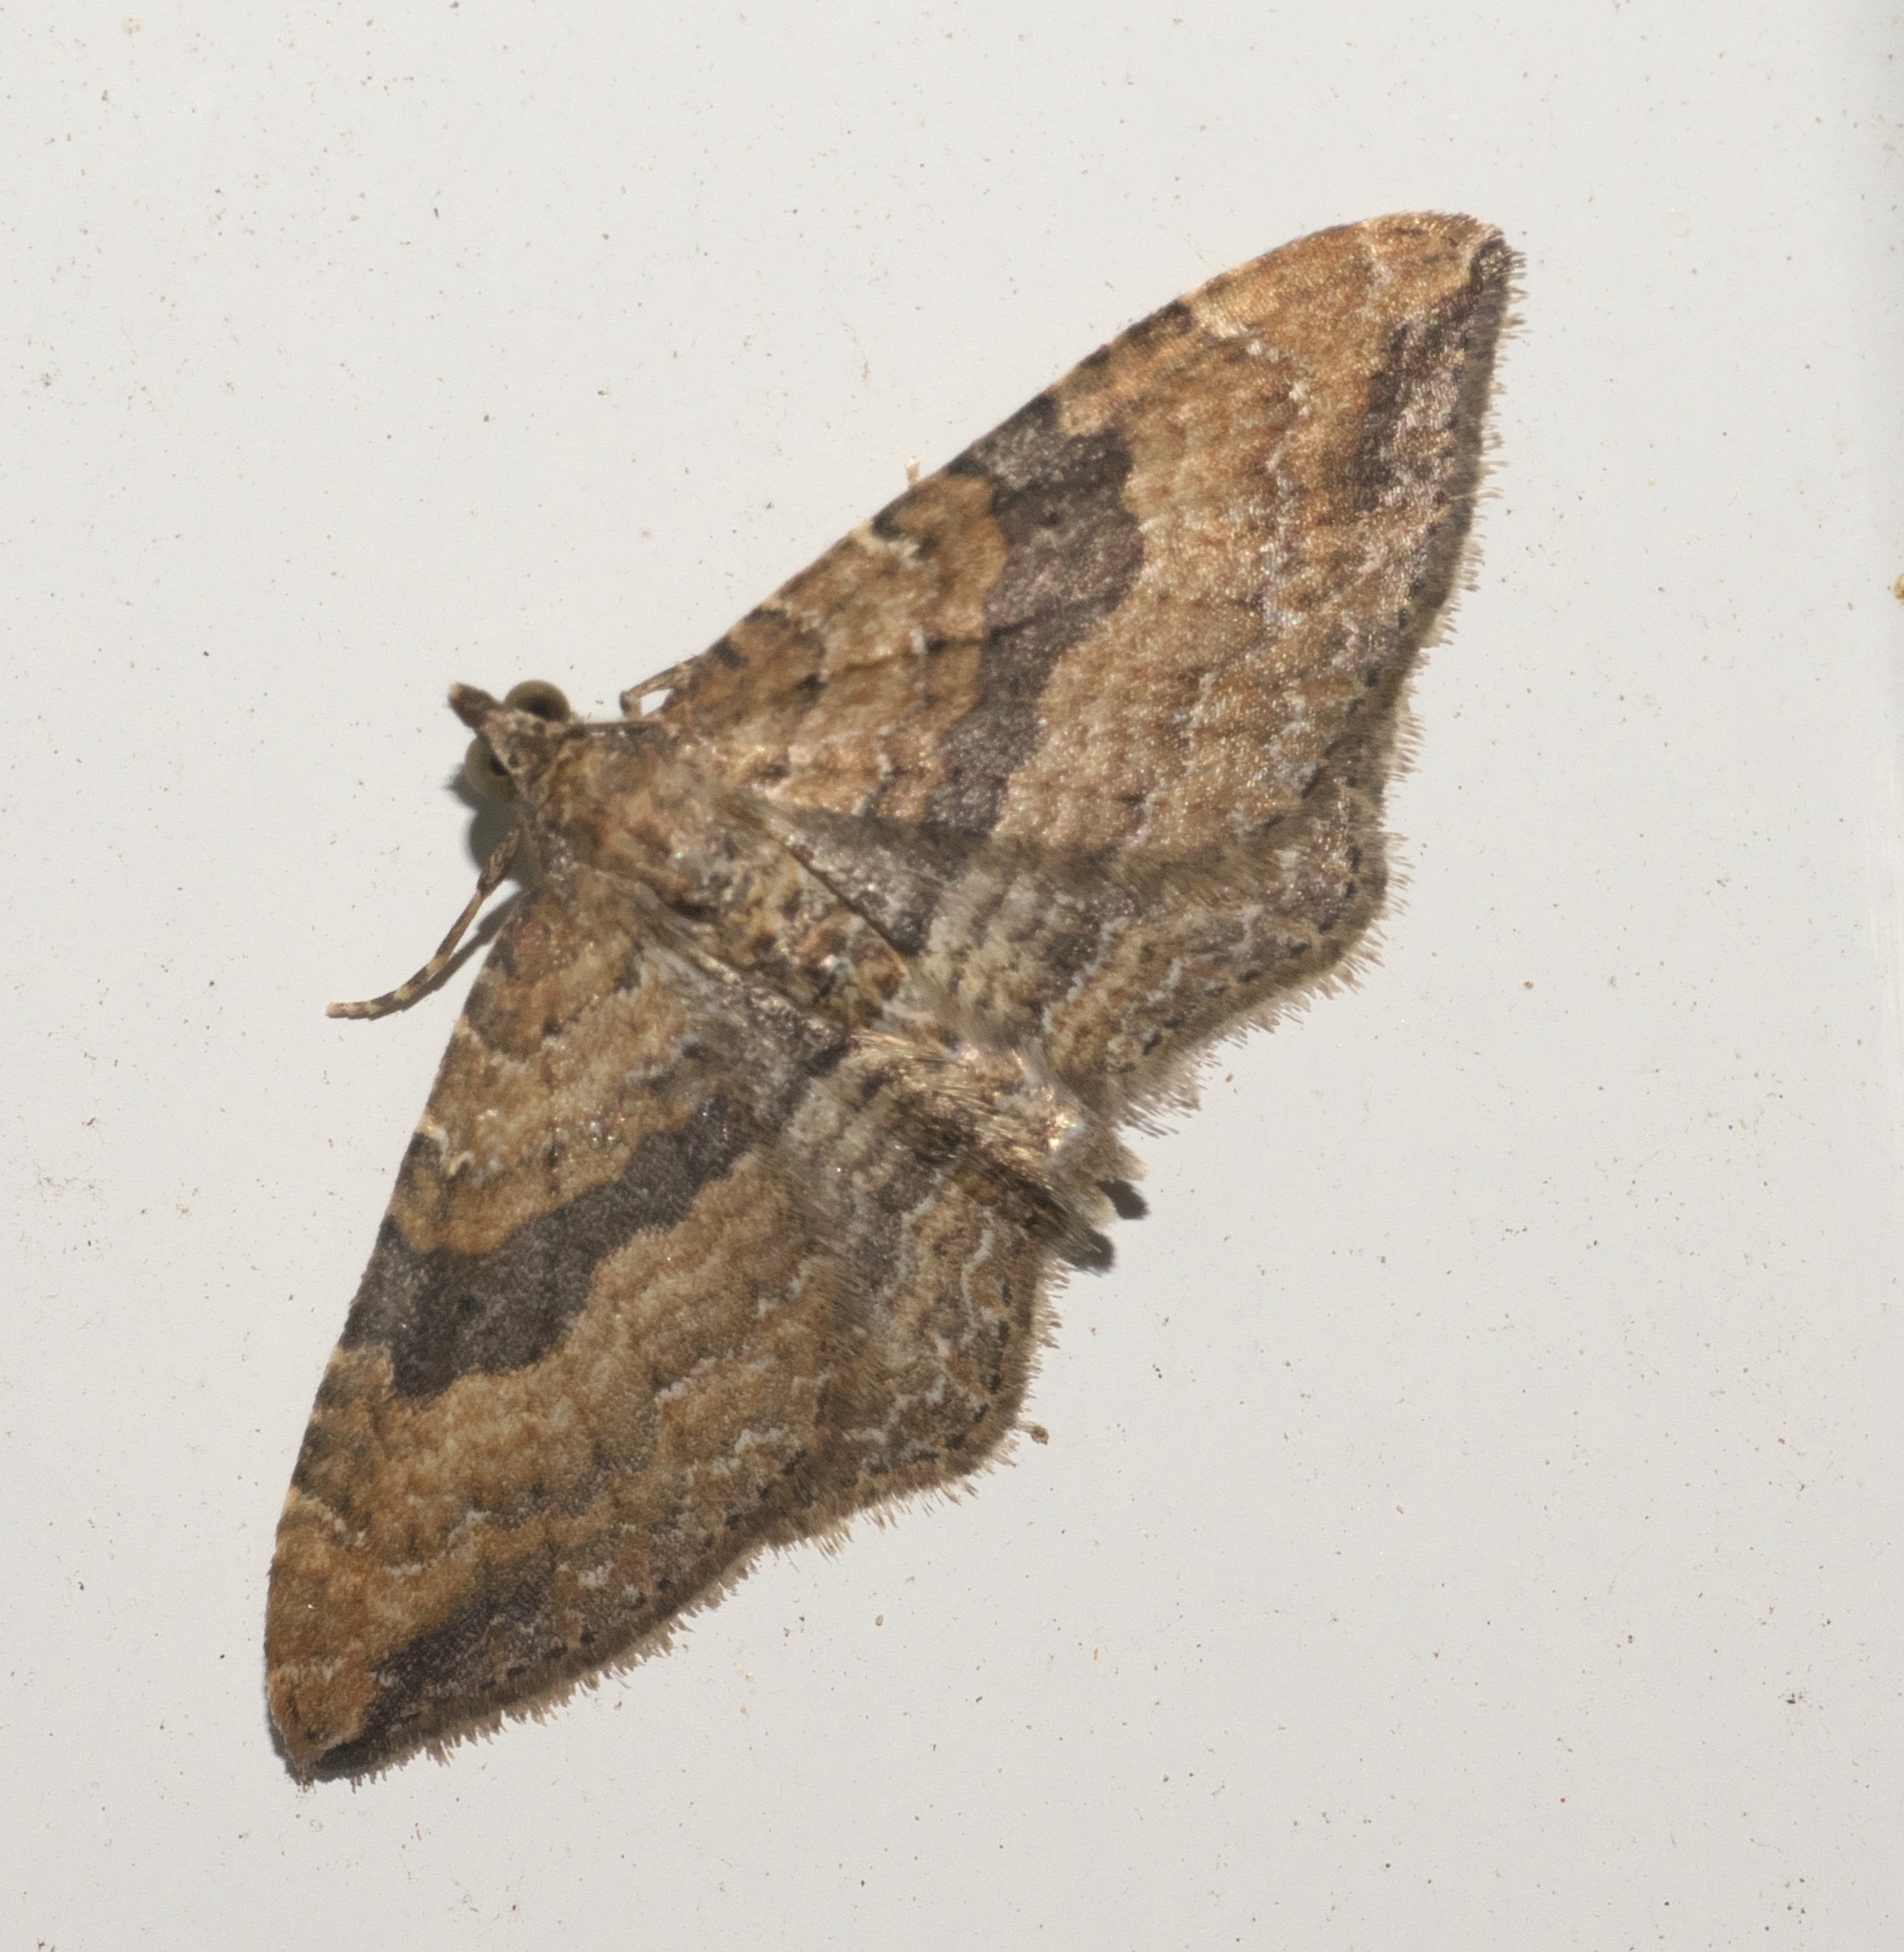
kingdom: Animalia
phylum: Arthropoda
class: Insecta
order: Lepidoptera
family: Geometridae
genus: Orthonama
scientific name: Orthonama obstipata
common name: The gem
